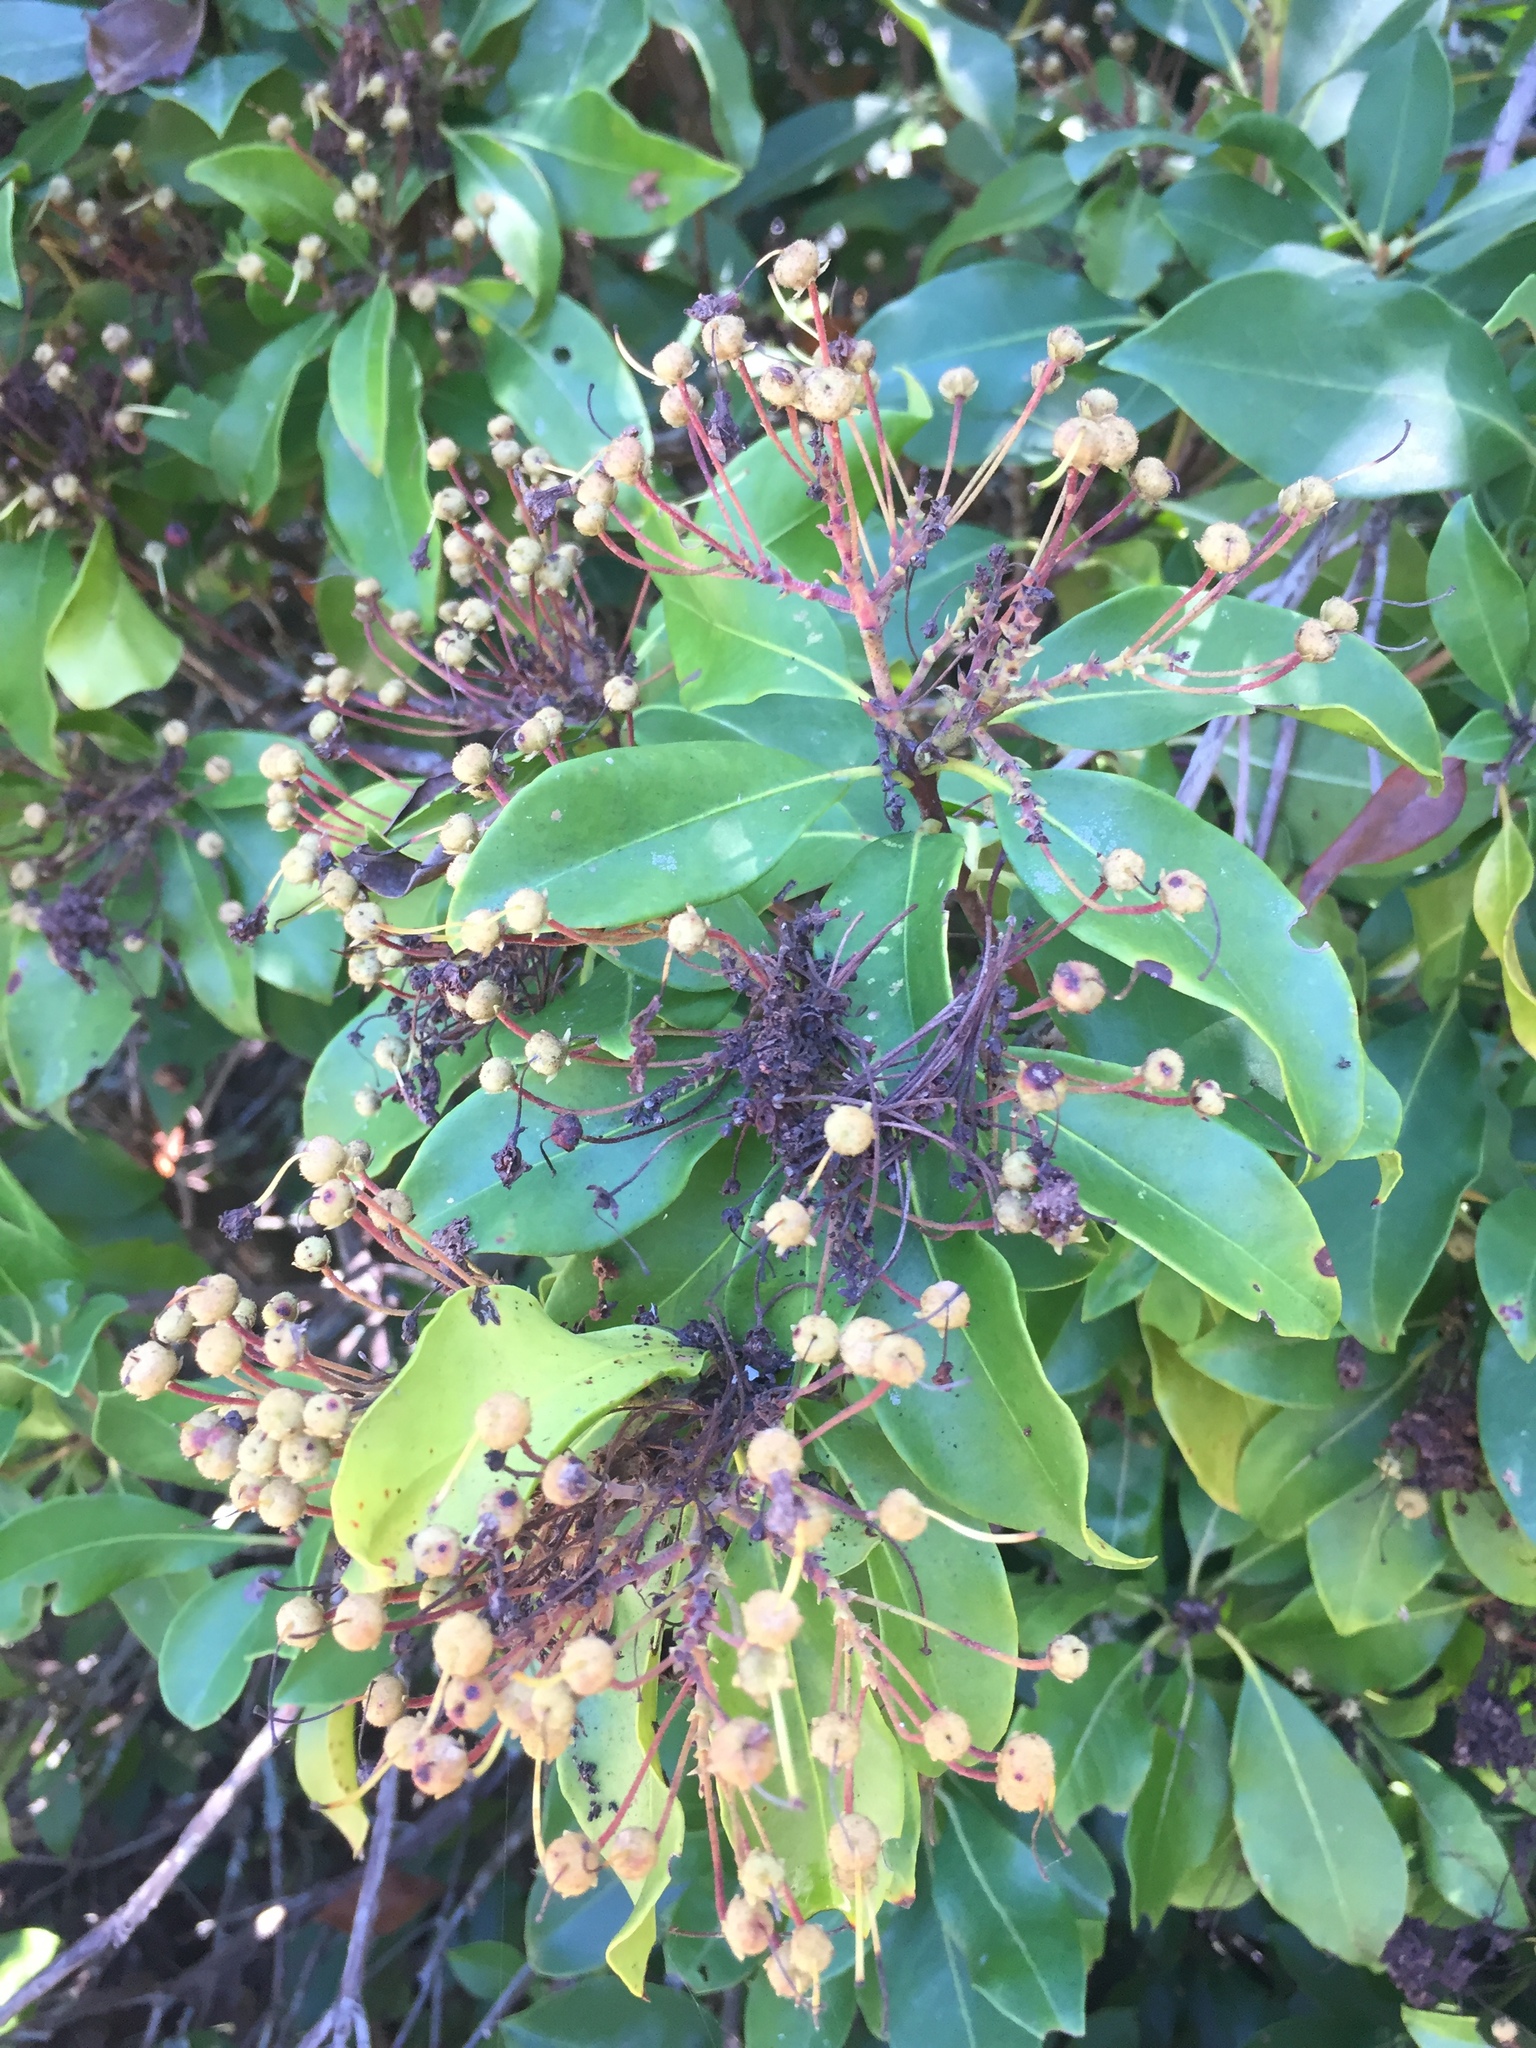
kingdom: Plantae
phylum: Tracheophyta
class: Magnoliopsida
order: Ericales
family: Ericaceae
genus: Kalmia
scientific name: Kalmia latifolia
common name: Mountain-laurel
